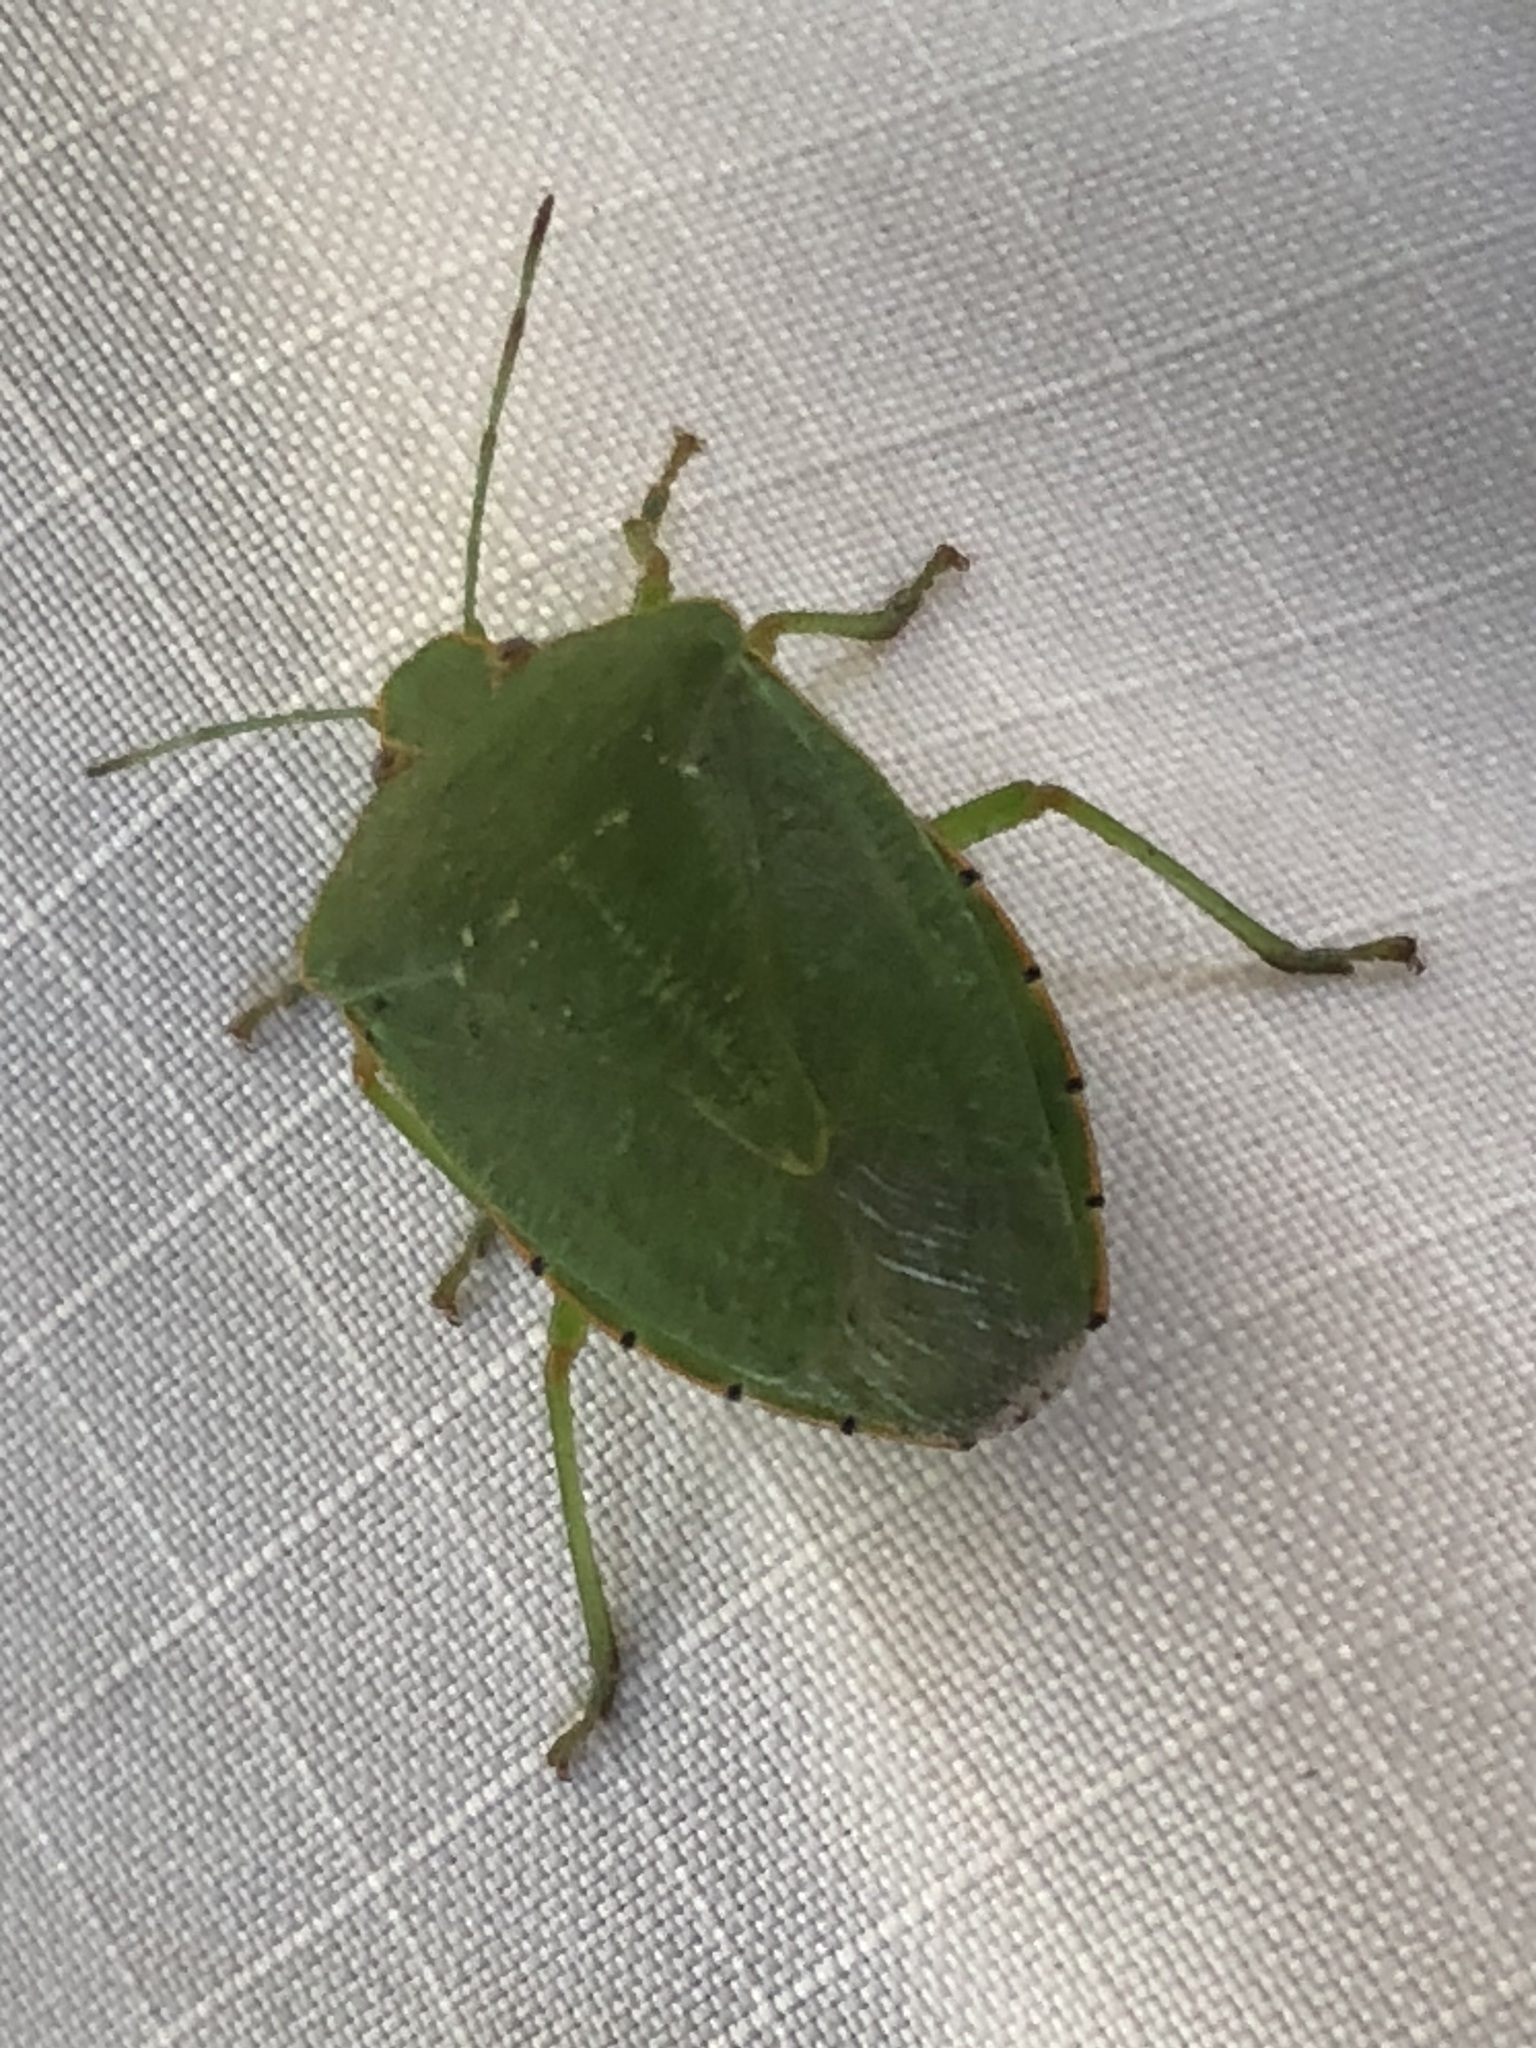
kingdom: Animalia
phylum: Arthropoda
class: Insecta
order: Hemiptera
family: Pentatomidae
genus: Chinavia
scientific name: Chinavia hilaris
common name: Green stink bug
